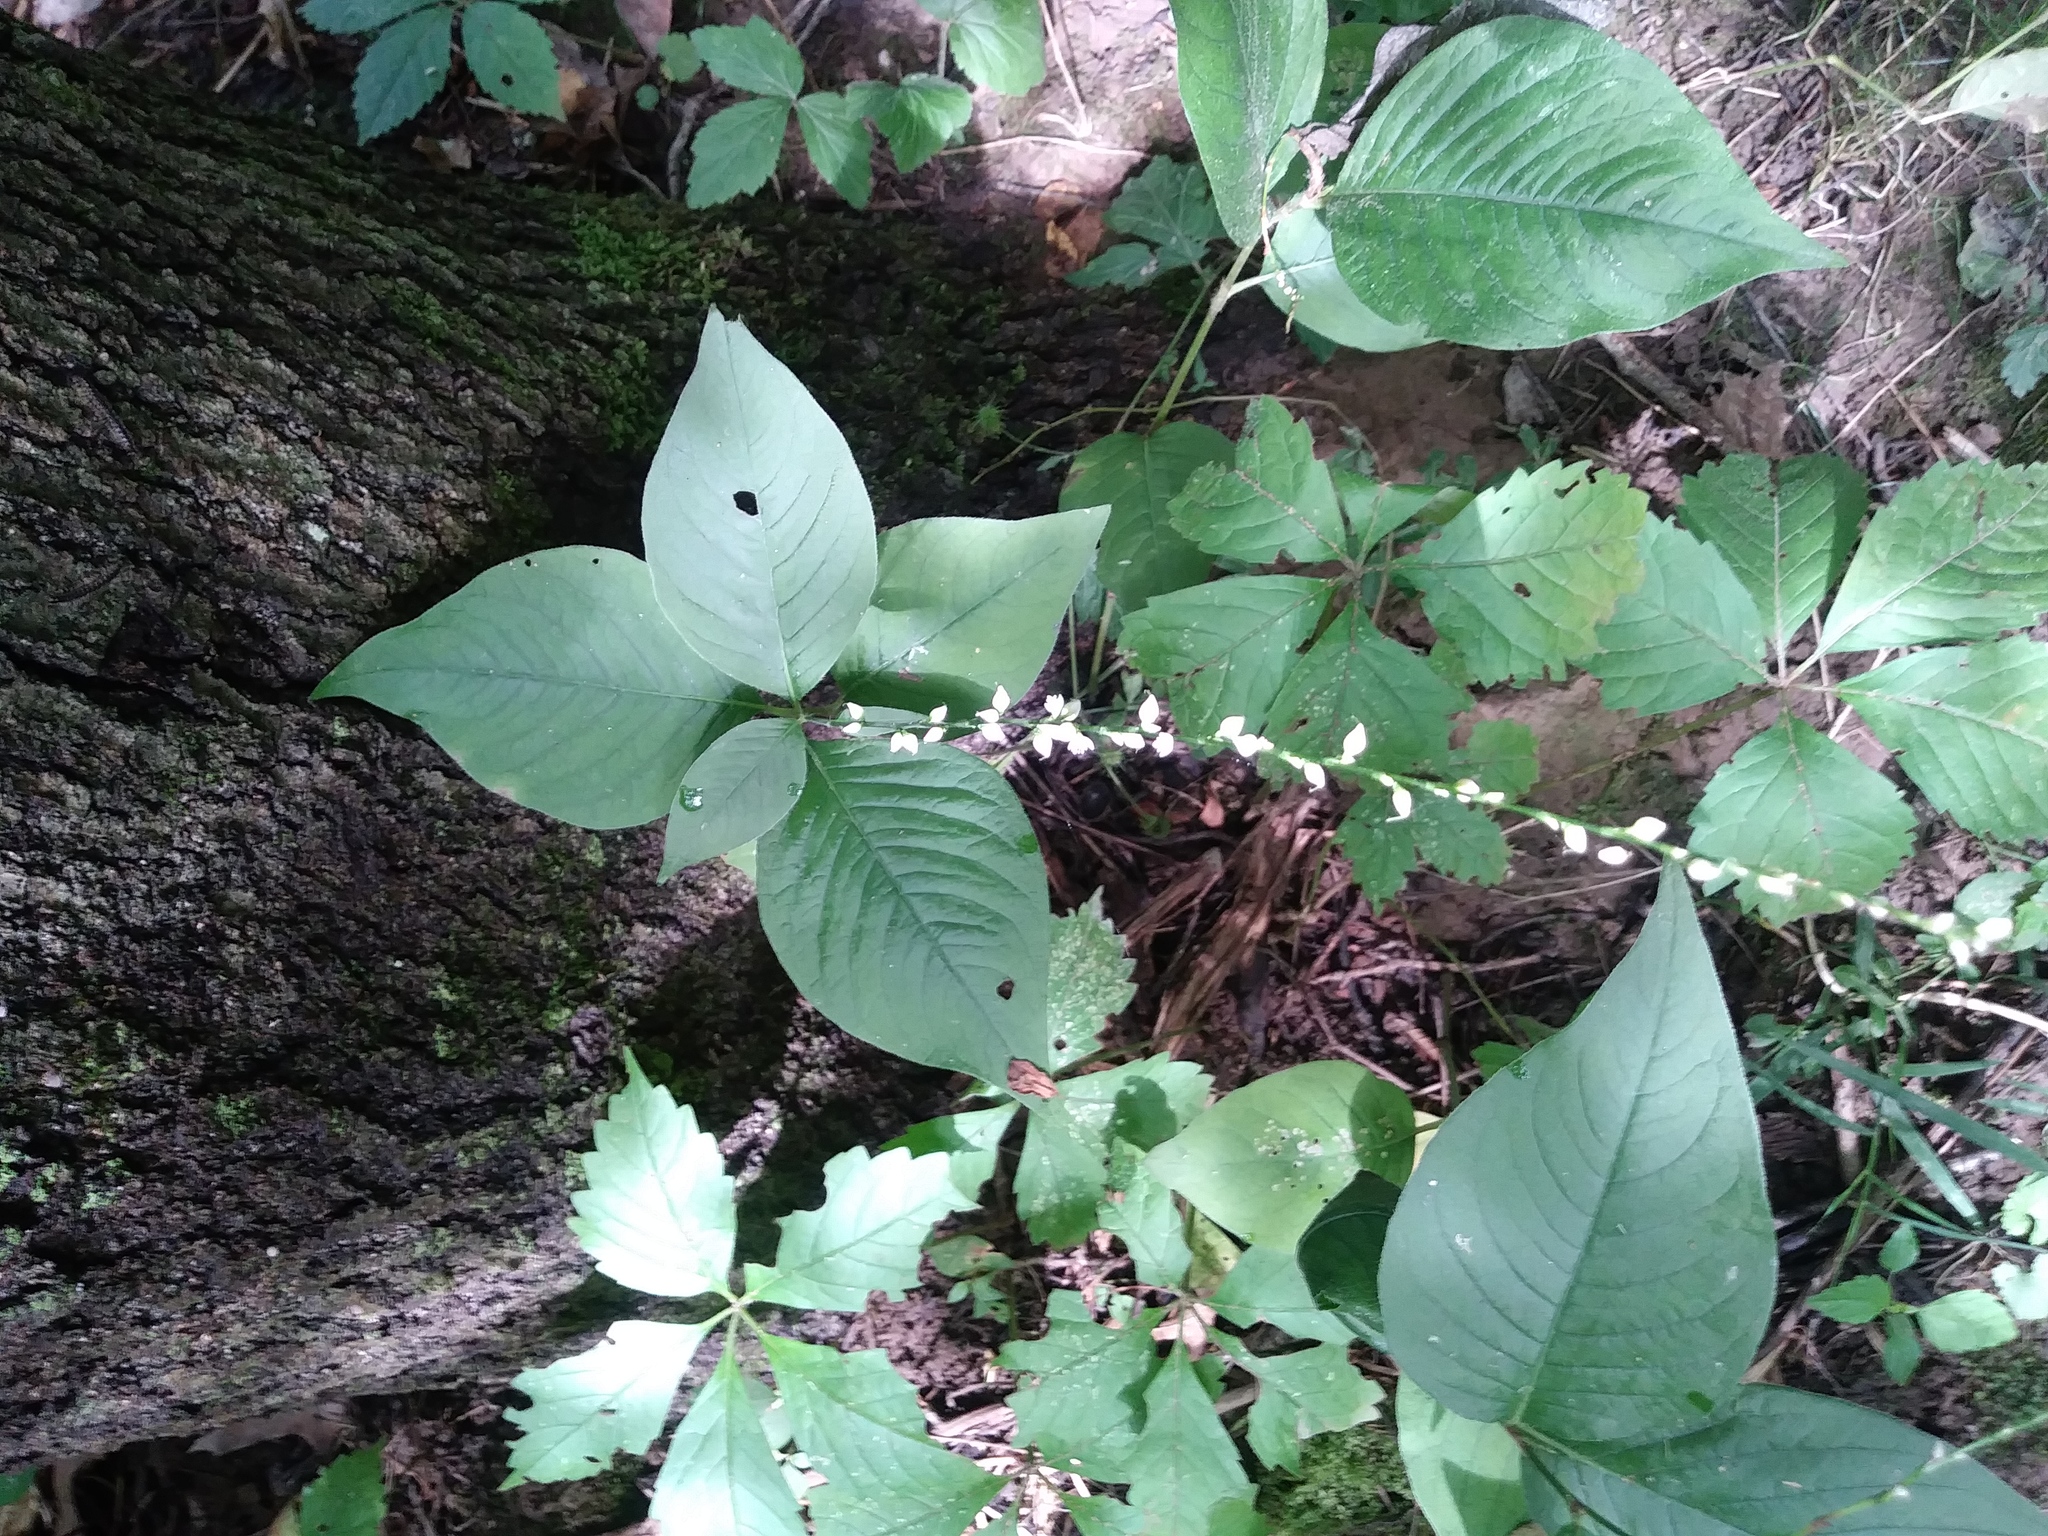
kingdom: Plantae
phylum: Tracheophyta
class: Magnoliopsida
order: Caryophyllales
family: Polygonaceae
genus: Persicaria
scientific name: Persicaria virginiana
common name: Jumpseed
